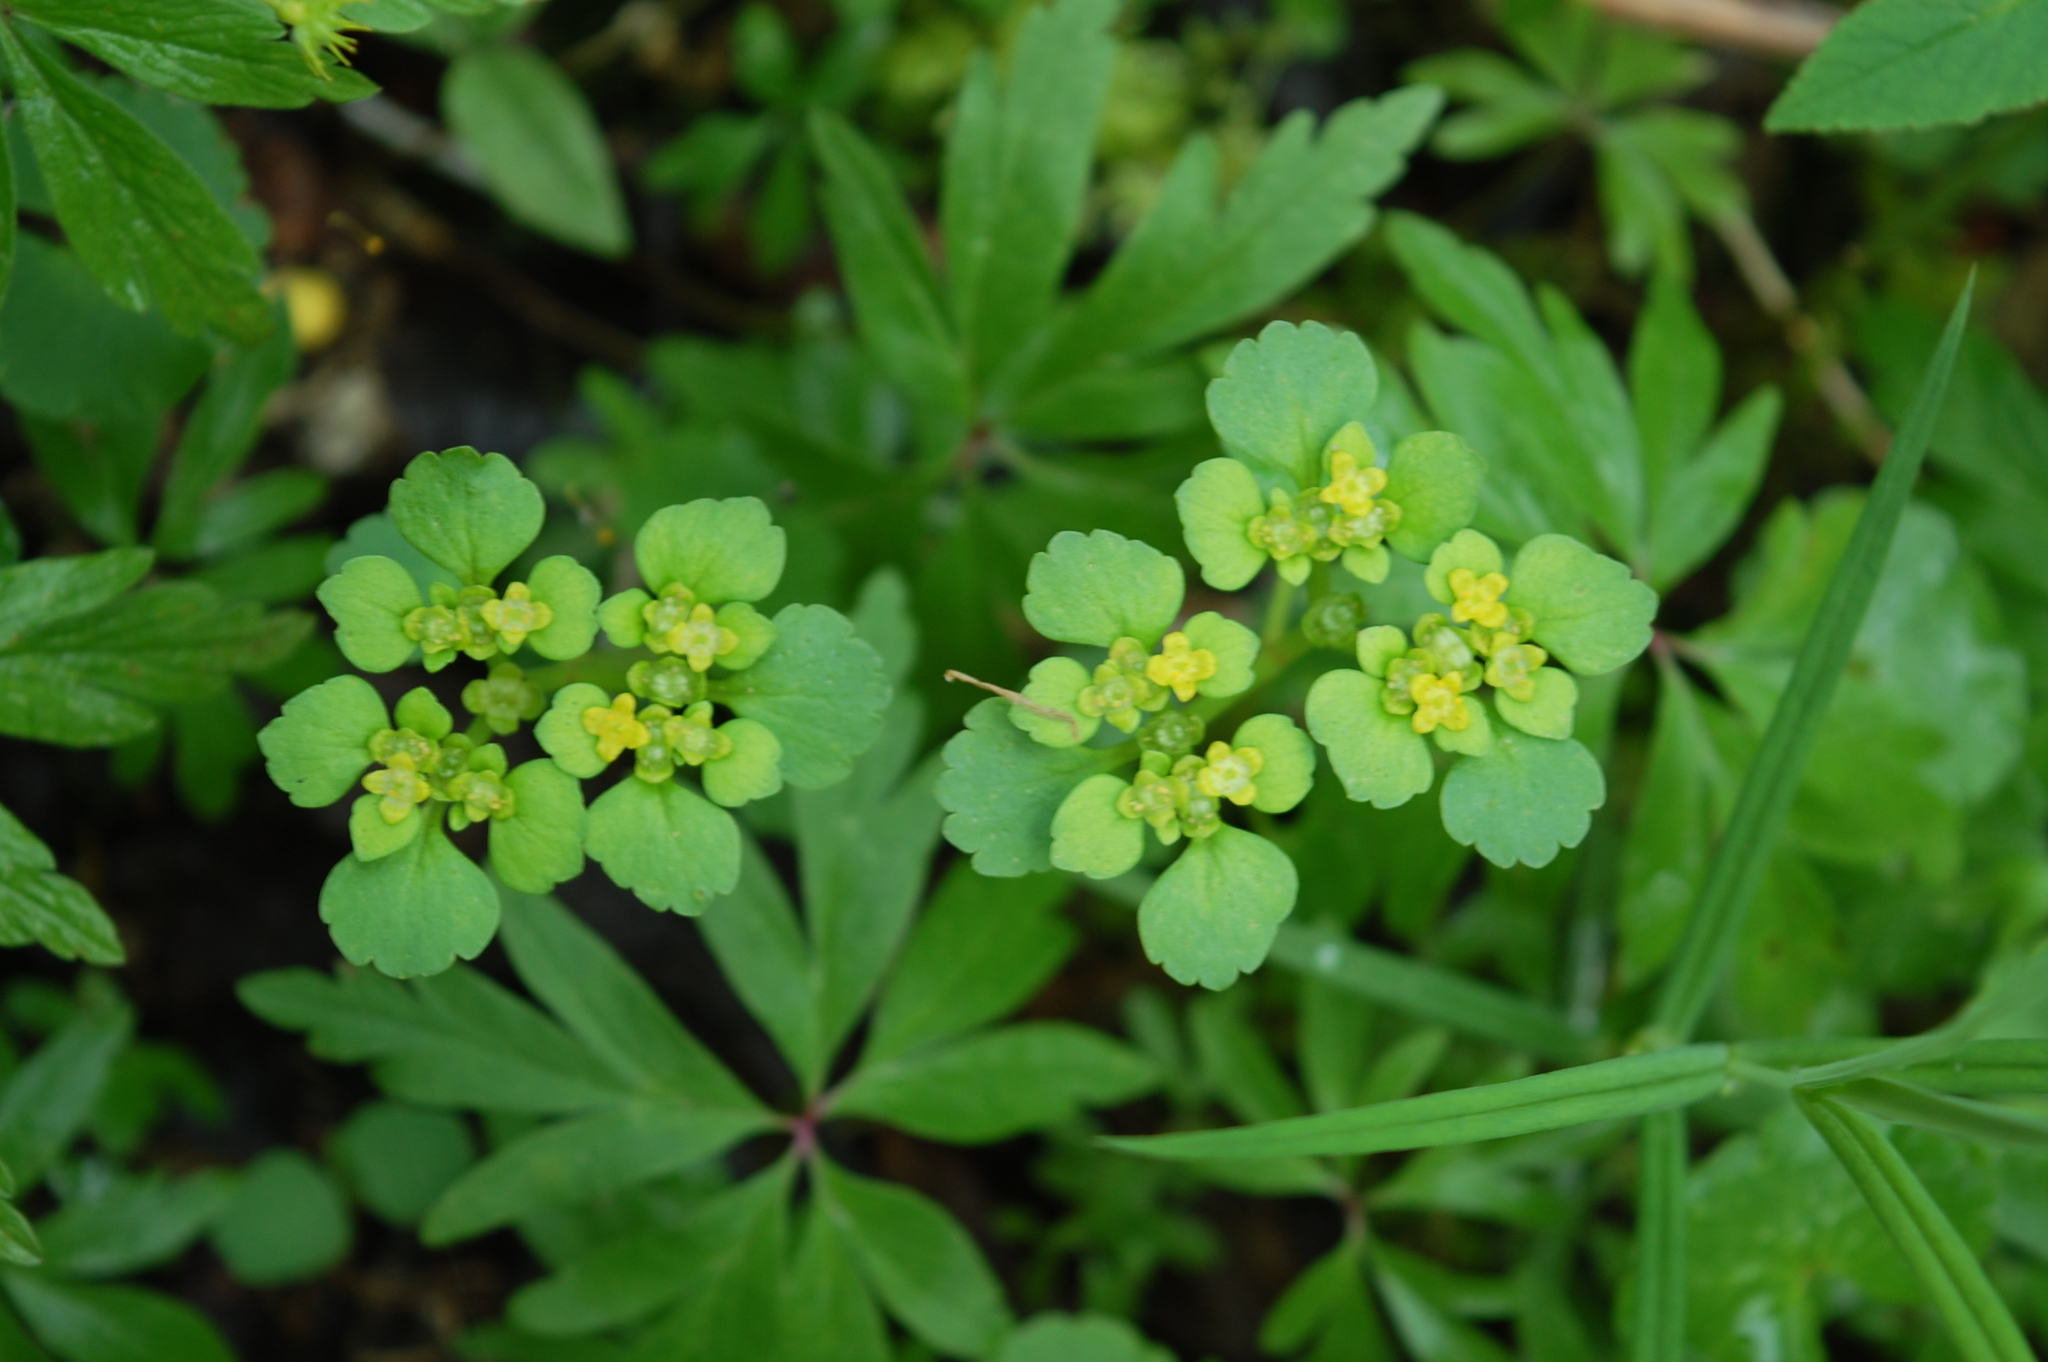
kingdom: Plantae
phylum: Tracheophyta
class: Magnoliopsida
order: Saxifragales
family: Saxifragaceae
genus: Chrysosplenium
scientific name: Chrysosplenium alternifolium
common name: Alternate-leaved golden-saxifrage
